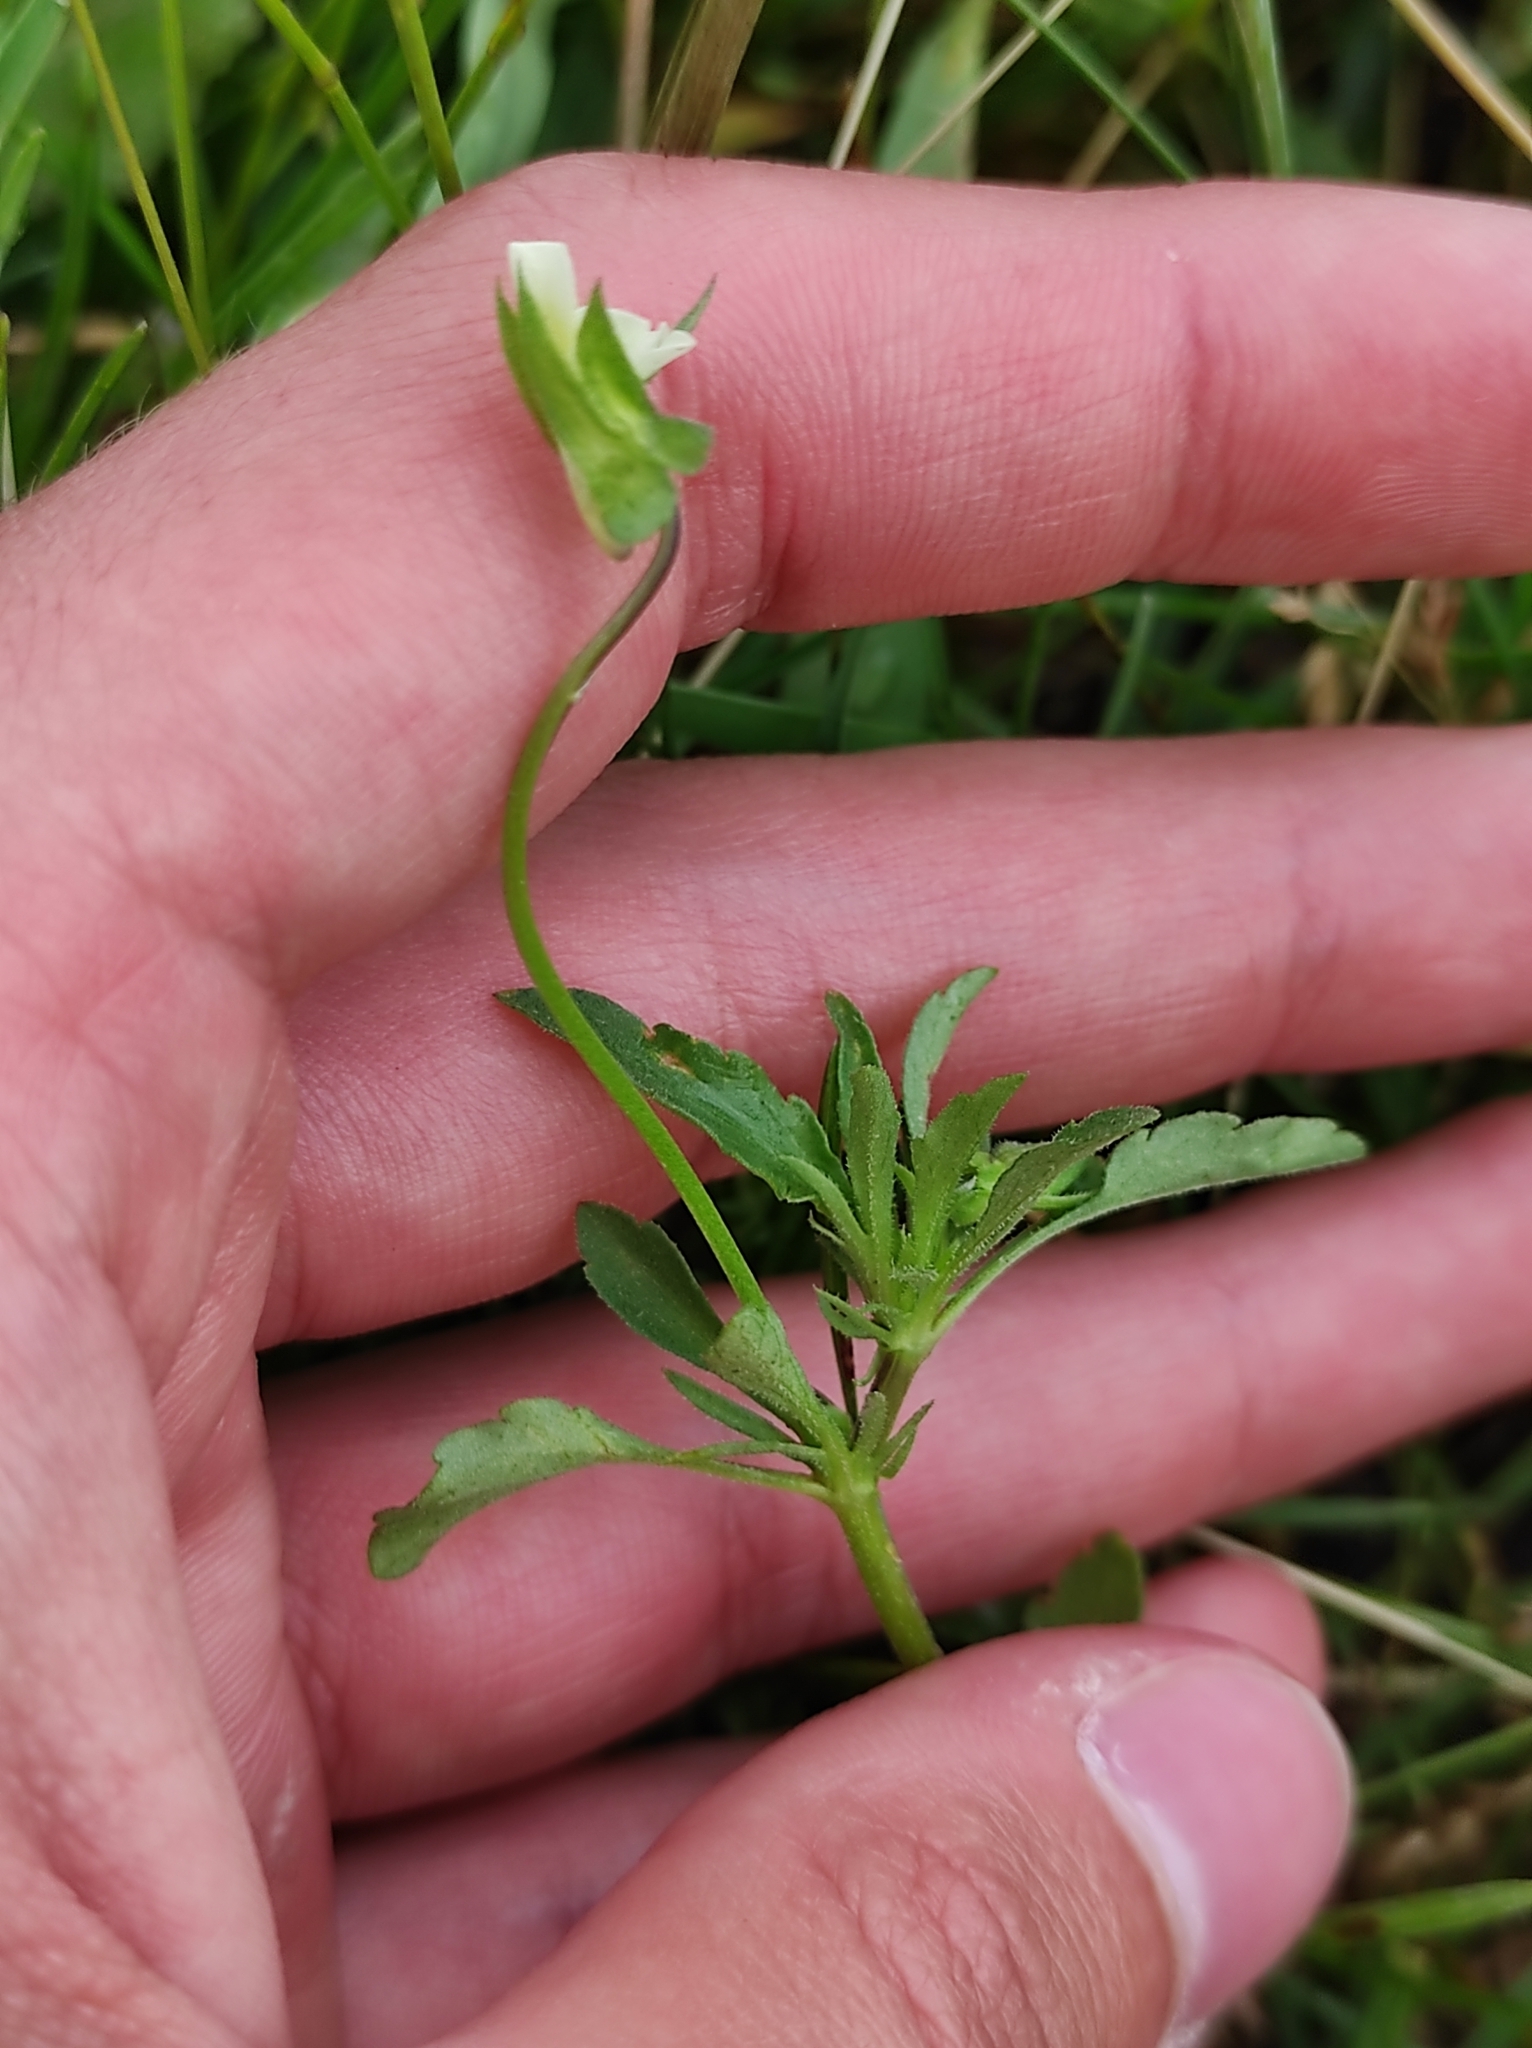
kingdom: Plantae
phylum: Tracheophyta
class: Magnoliopsida
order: Malpighiales
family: Violaceae
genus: Viola
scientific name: Viola arvensis
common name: Field pansy
